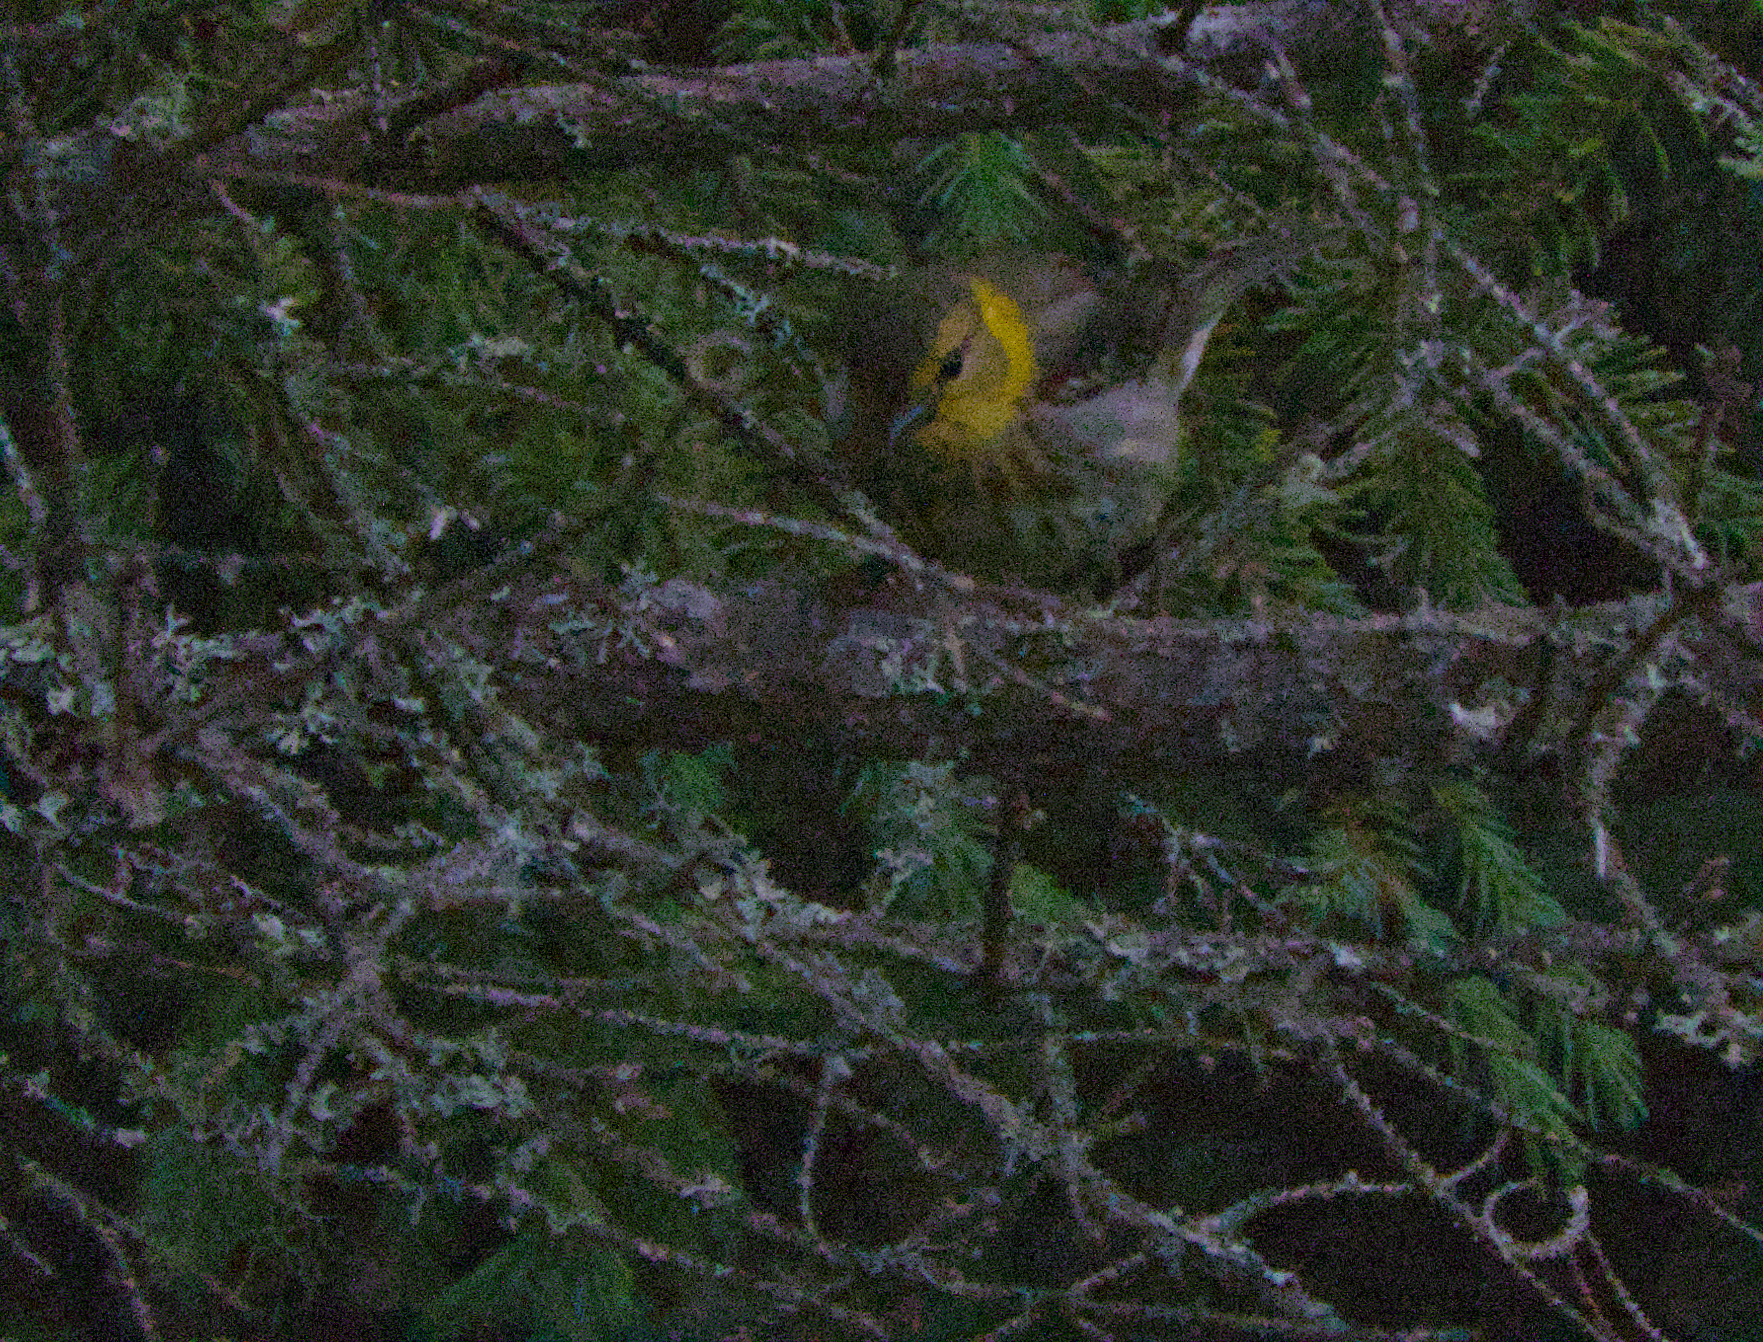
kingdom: Animalia
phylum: Chordata
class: Aves
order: Passeriformes
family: Parulidae
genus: Setophaga
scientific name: Setophaga tigrina
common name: Cape may warbler
